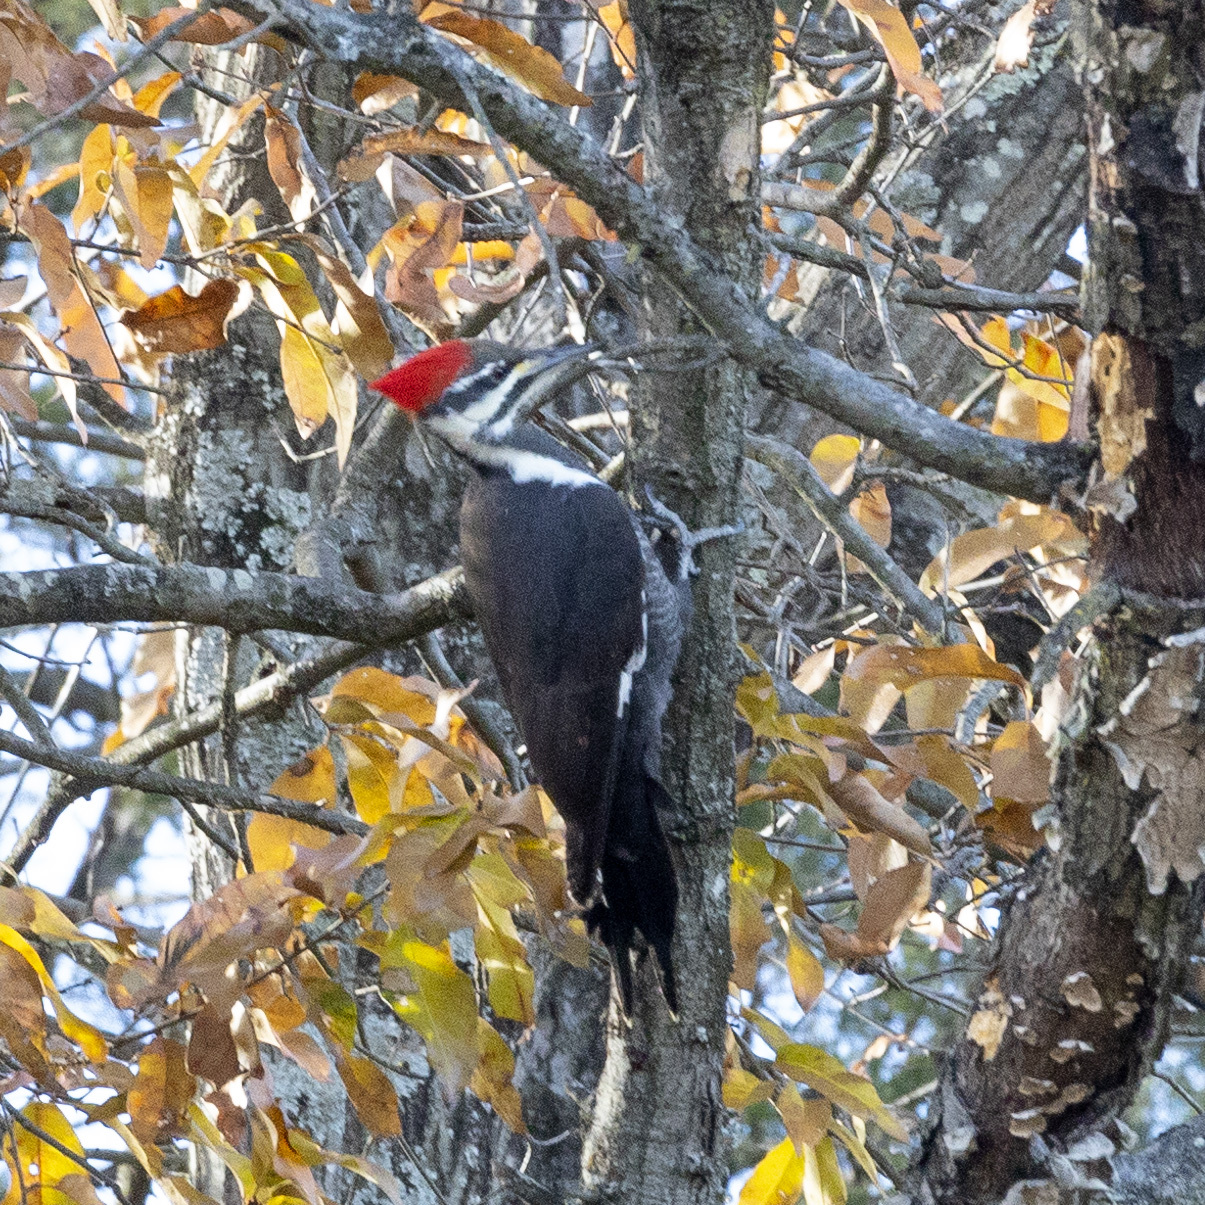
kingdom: Animalia
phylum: Chordata
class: Aves
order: Piciformes
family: Picidae
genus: Dryocopus
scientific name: Dryocopus pileatus
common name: Pileated woodpecker
